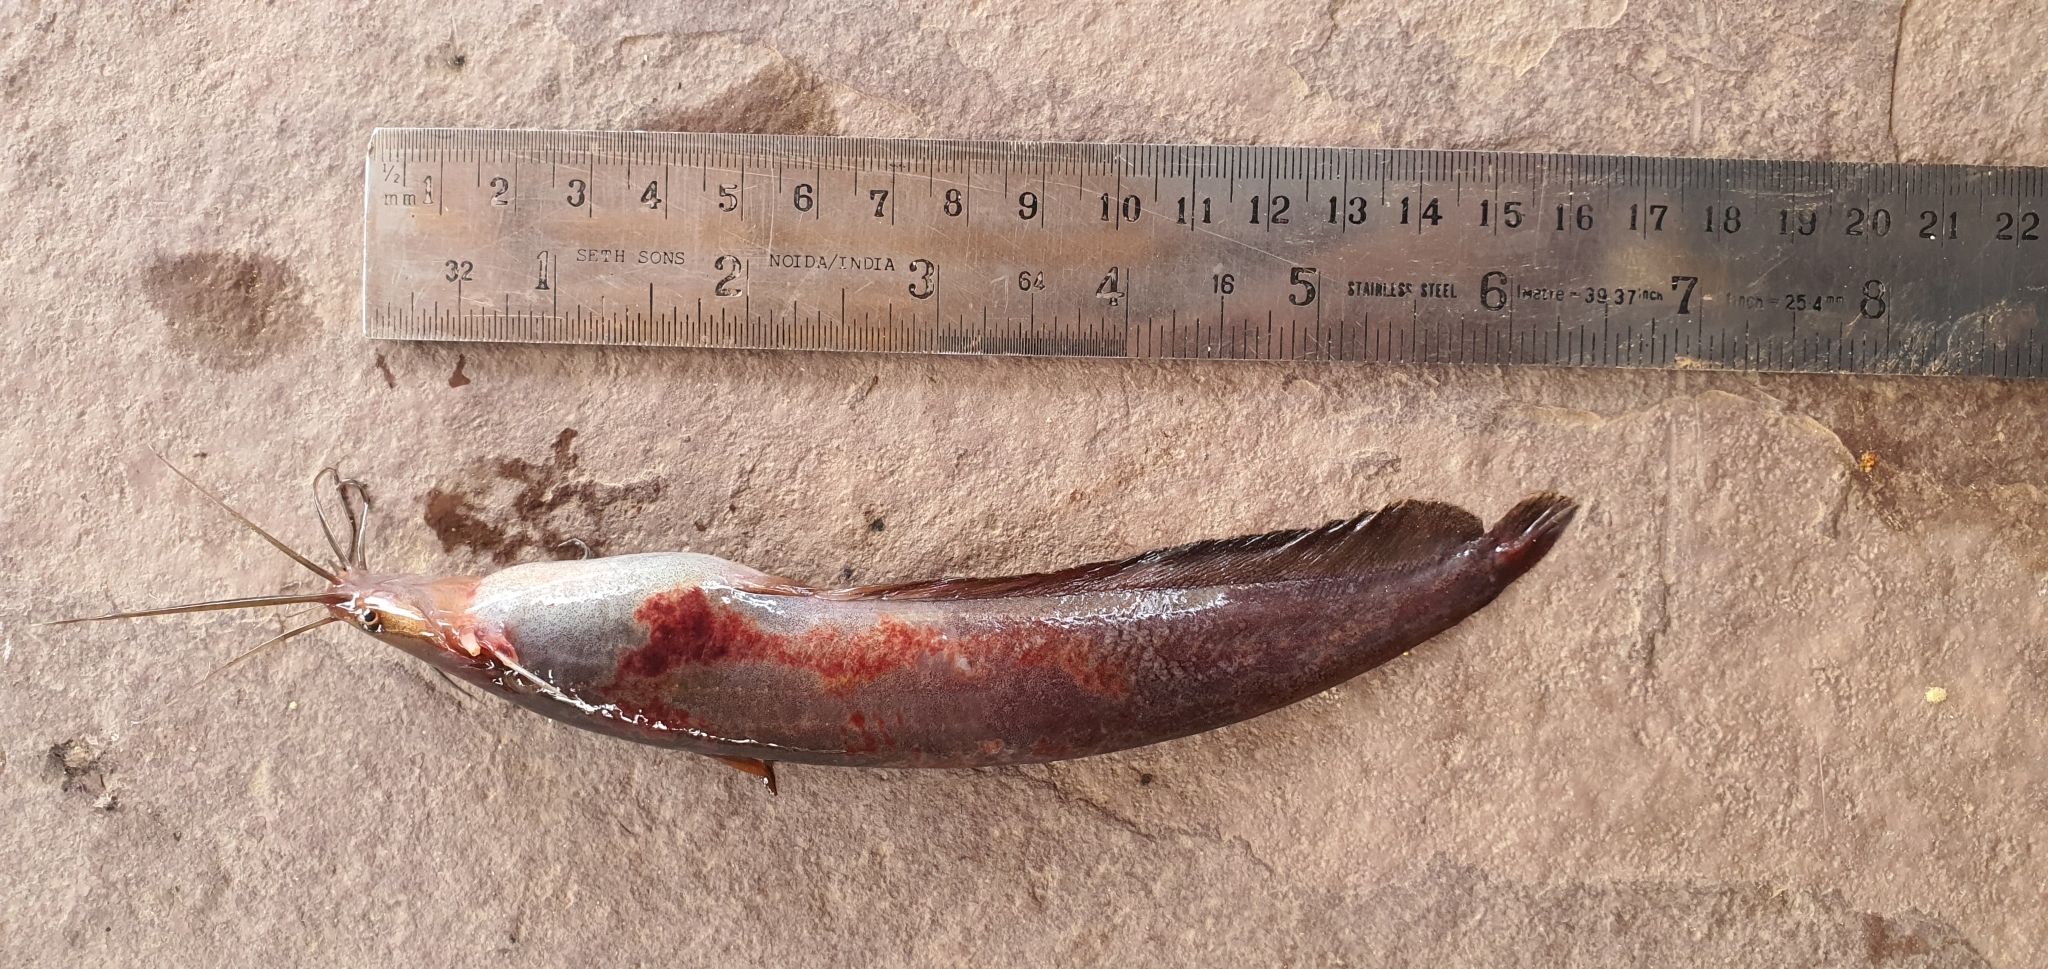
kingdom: Animalia
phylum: Chordata
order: Siluriformes
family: Heteropneustidae
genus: Heteropneustes
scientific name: Heteropneustes fossilis
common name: Stinging catfish
